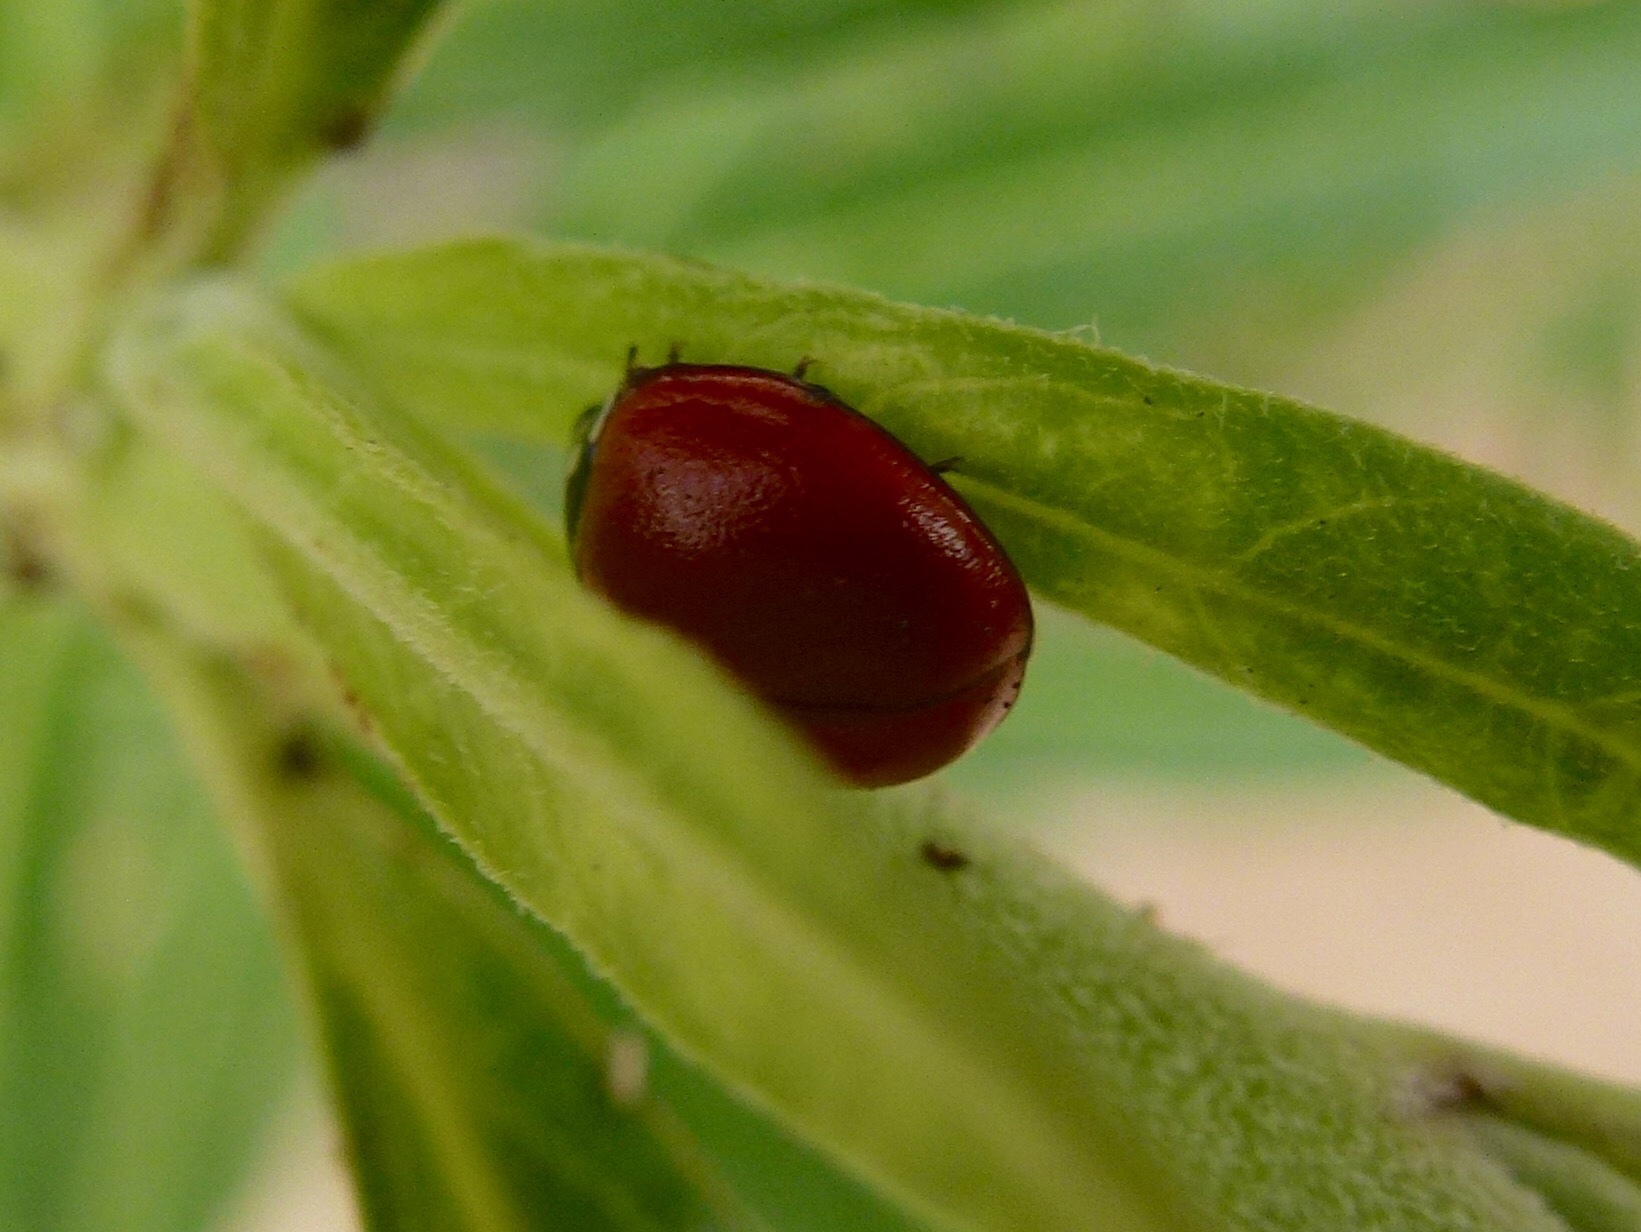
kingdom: Animalia
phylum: Arthropoda
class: Insecta
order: Coleoptera
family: Coccinellidae
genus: Cycloneda
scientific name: Cycloneda sanguinea
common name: Ladybird beetle
